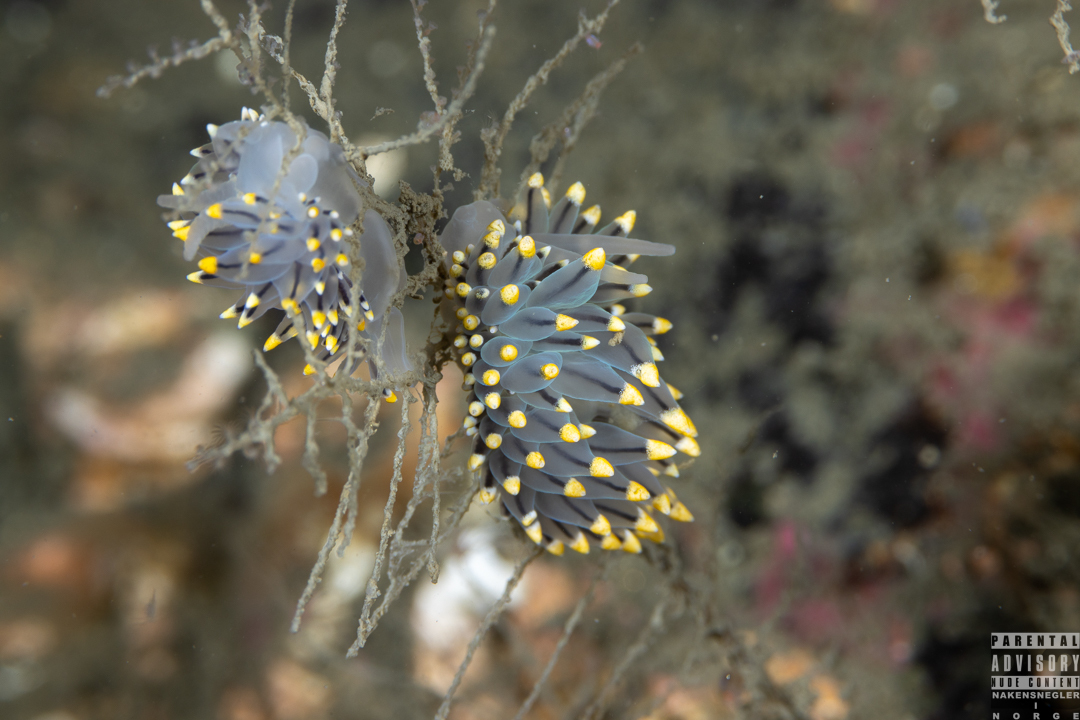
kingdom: Animalia
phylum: Mollusca
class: Gastropoda
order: Nudibranchia
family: Eubranchidae
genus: Eubranchus
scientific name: Eubranchus tricolor
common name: Painted balloon aeolis
